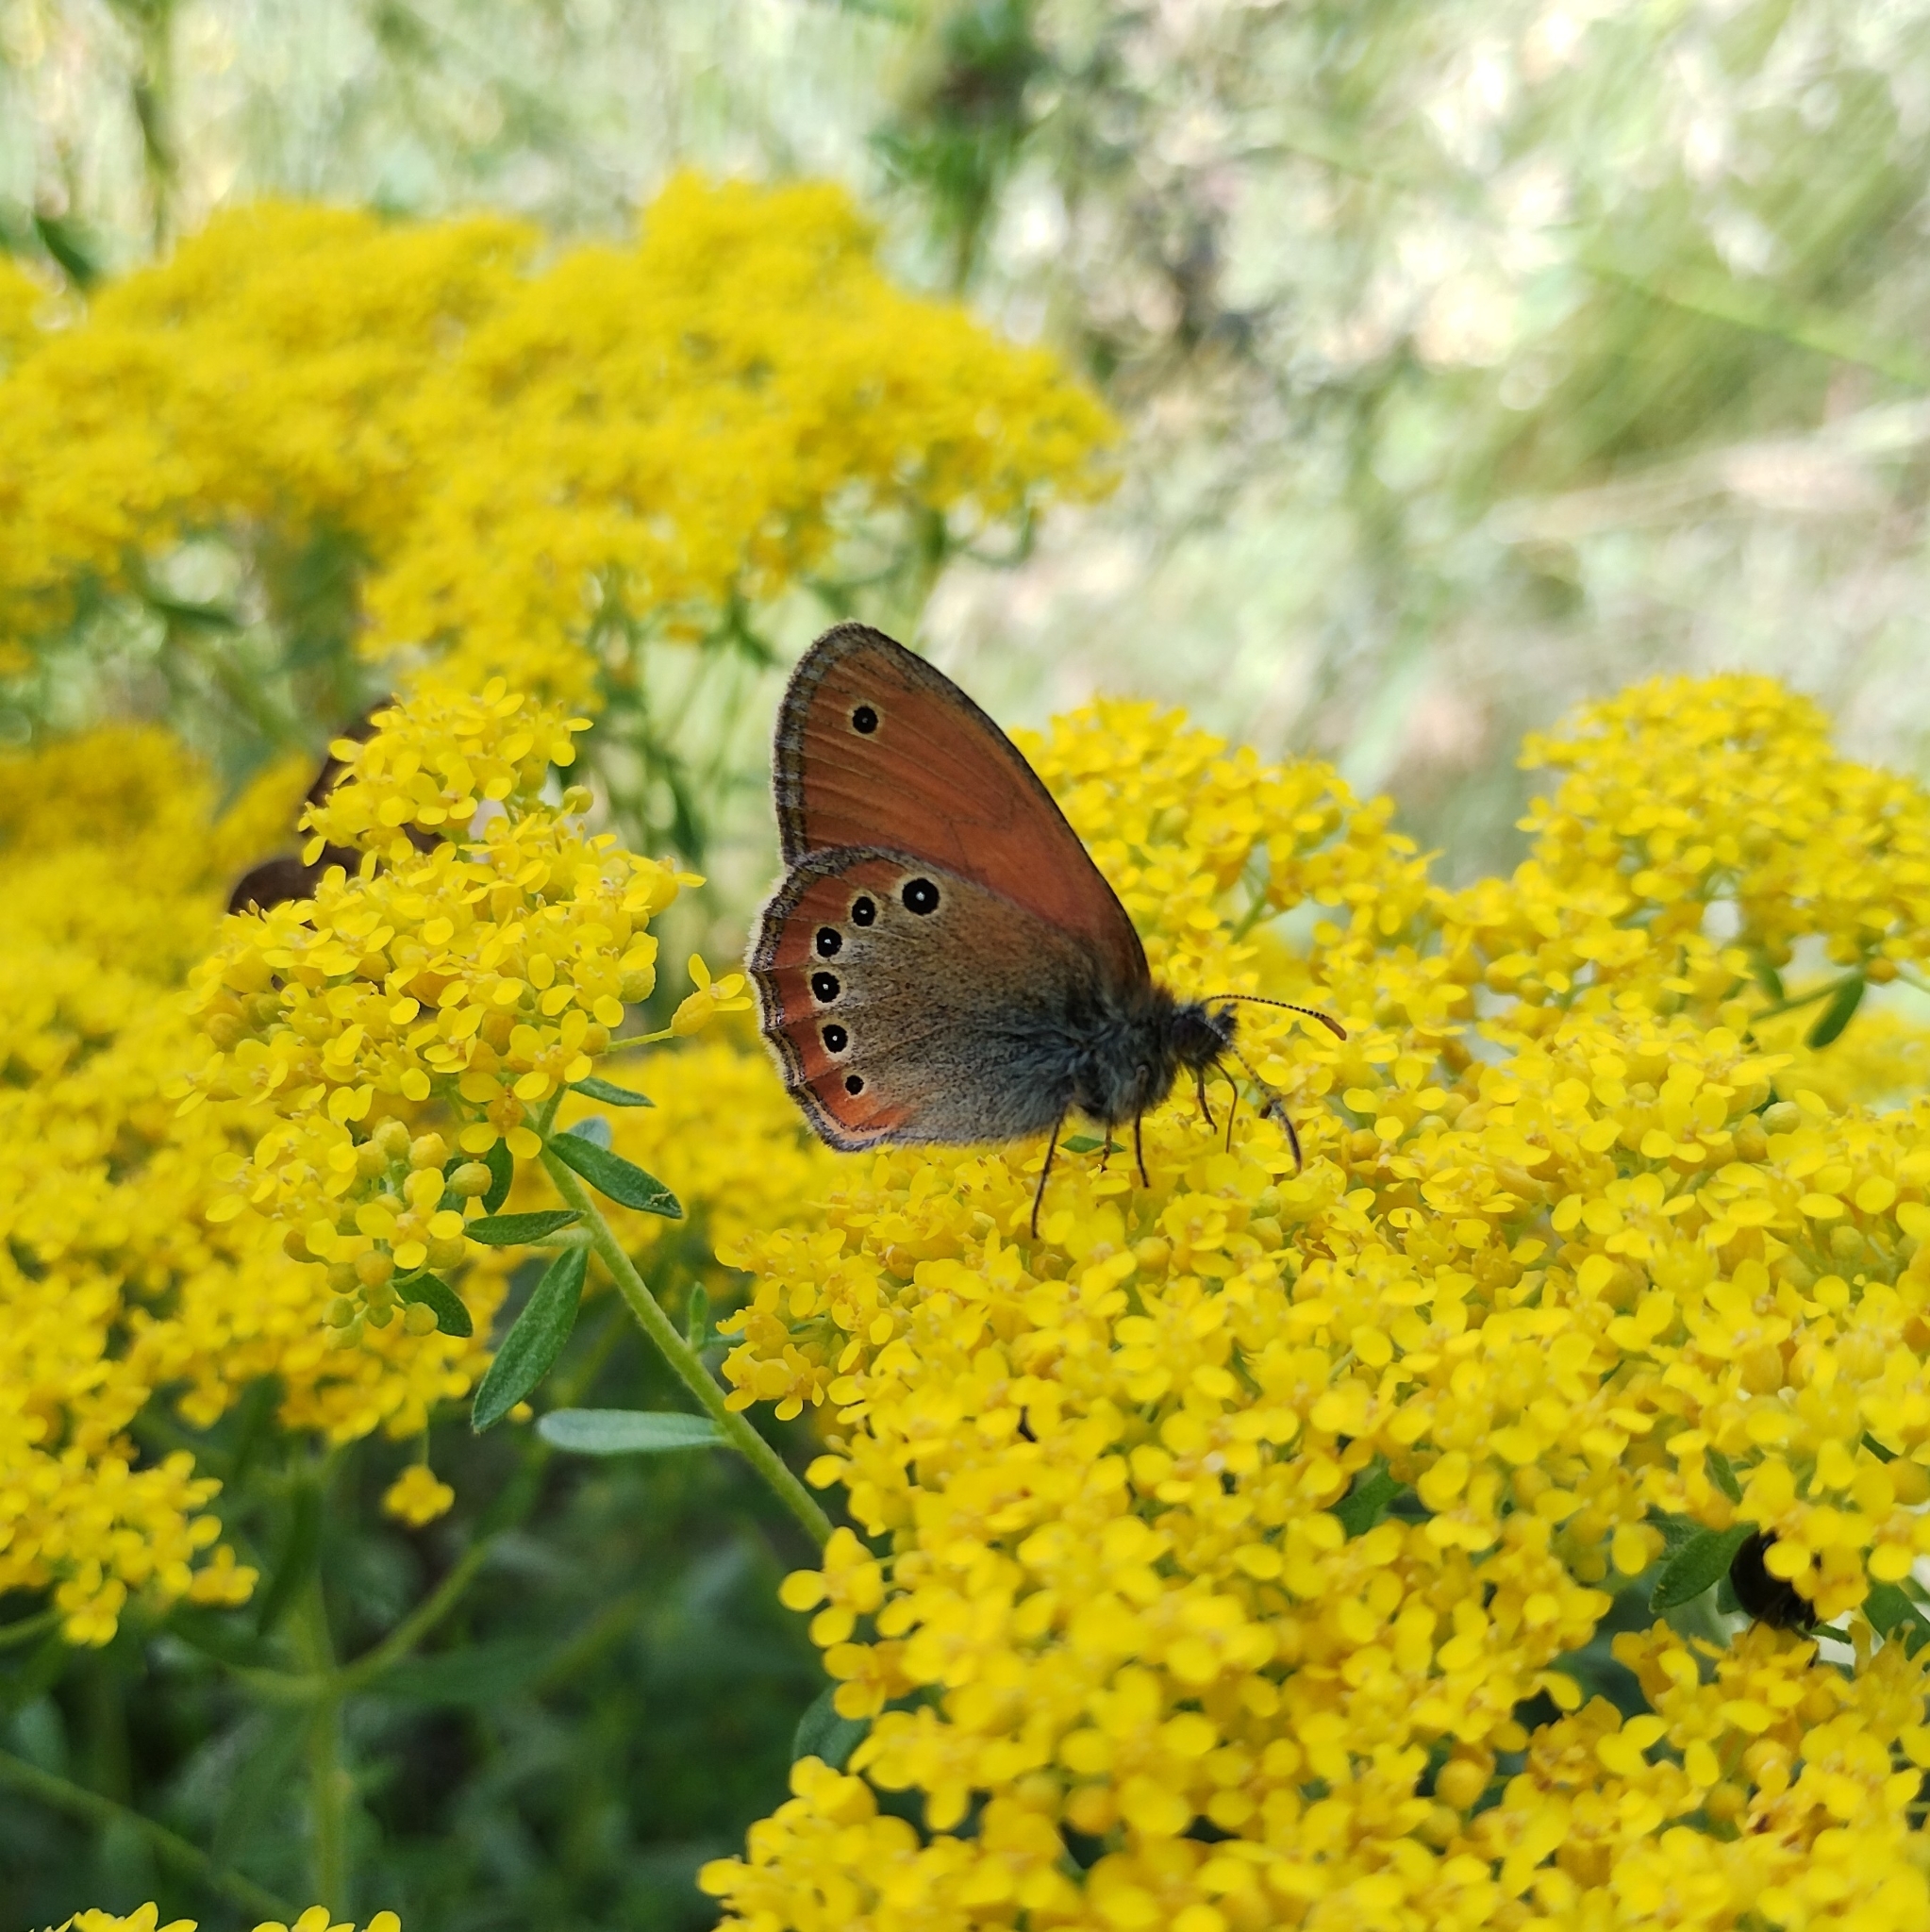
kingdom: Animalia
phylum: Arthropoda
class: Insecta
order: Lepidoptera
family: Nymphalidae
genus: Coenonympha
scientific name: Coenonympha leander
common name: Russian heath
